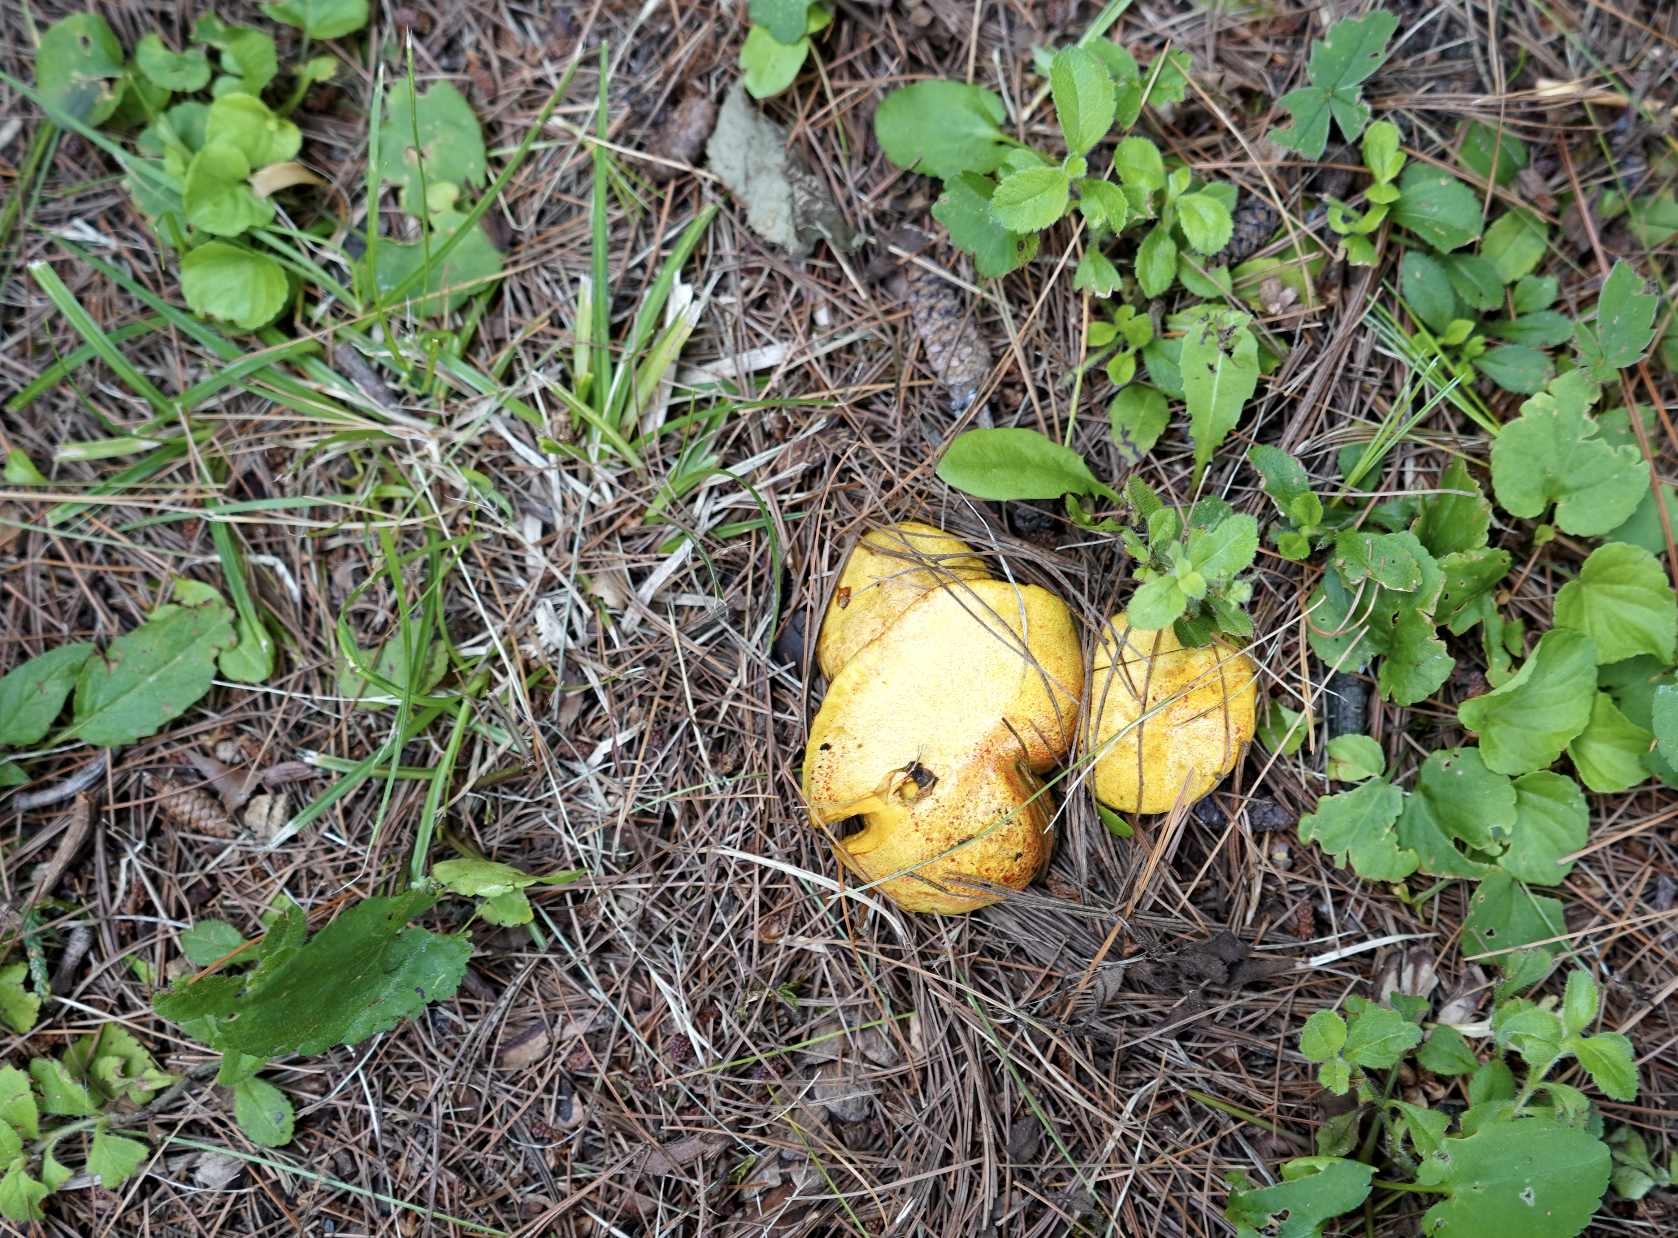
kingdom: Fungi
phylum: Basidiomycota
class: Agaricomycetes
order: Boletales
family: Suillaceae
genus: Suillus
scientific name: Suillus americanus
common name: Chicken fat mushroom
